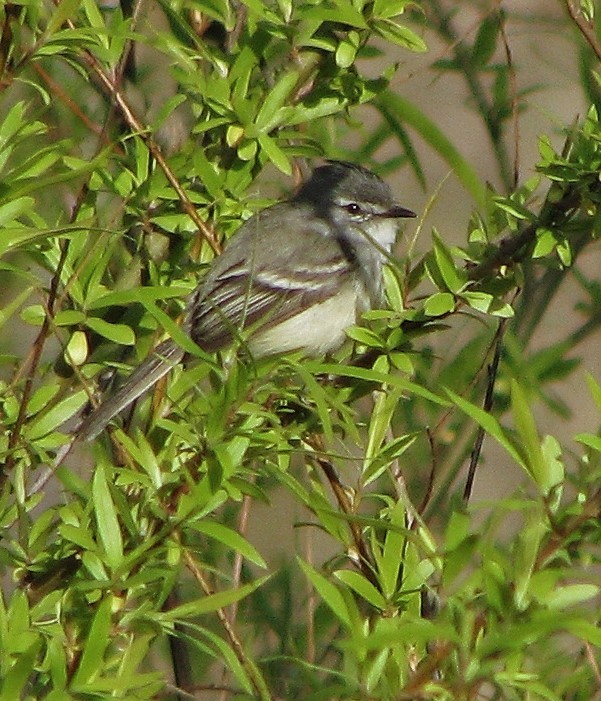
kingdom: Animalia
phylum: Chordata
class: Aves
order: Passeriformes
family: Tyrannidae
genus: Serpophaga
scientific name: Serpophaga subcristata
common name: White-crested tyrannulet
